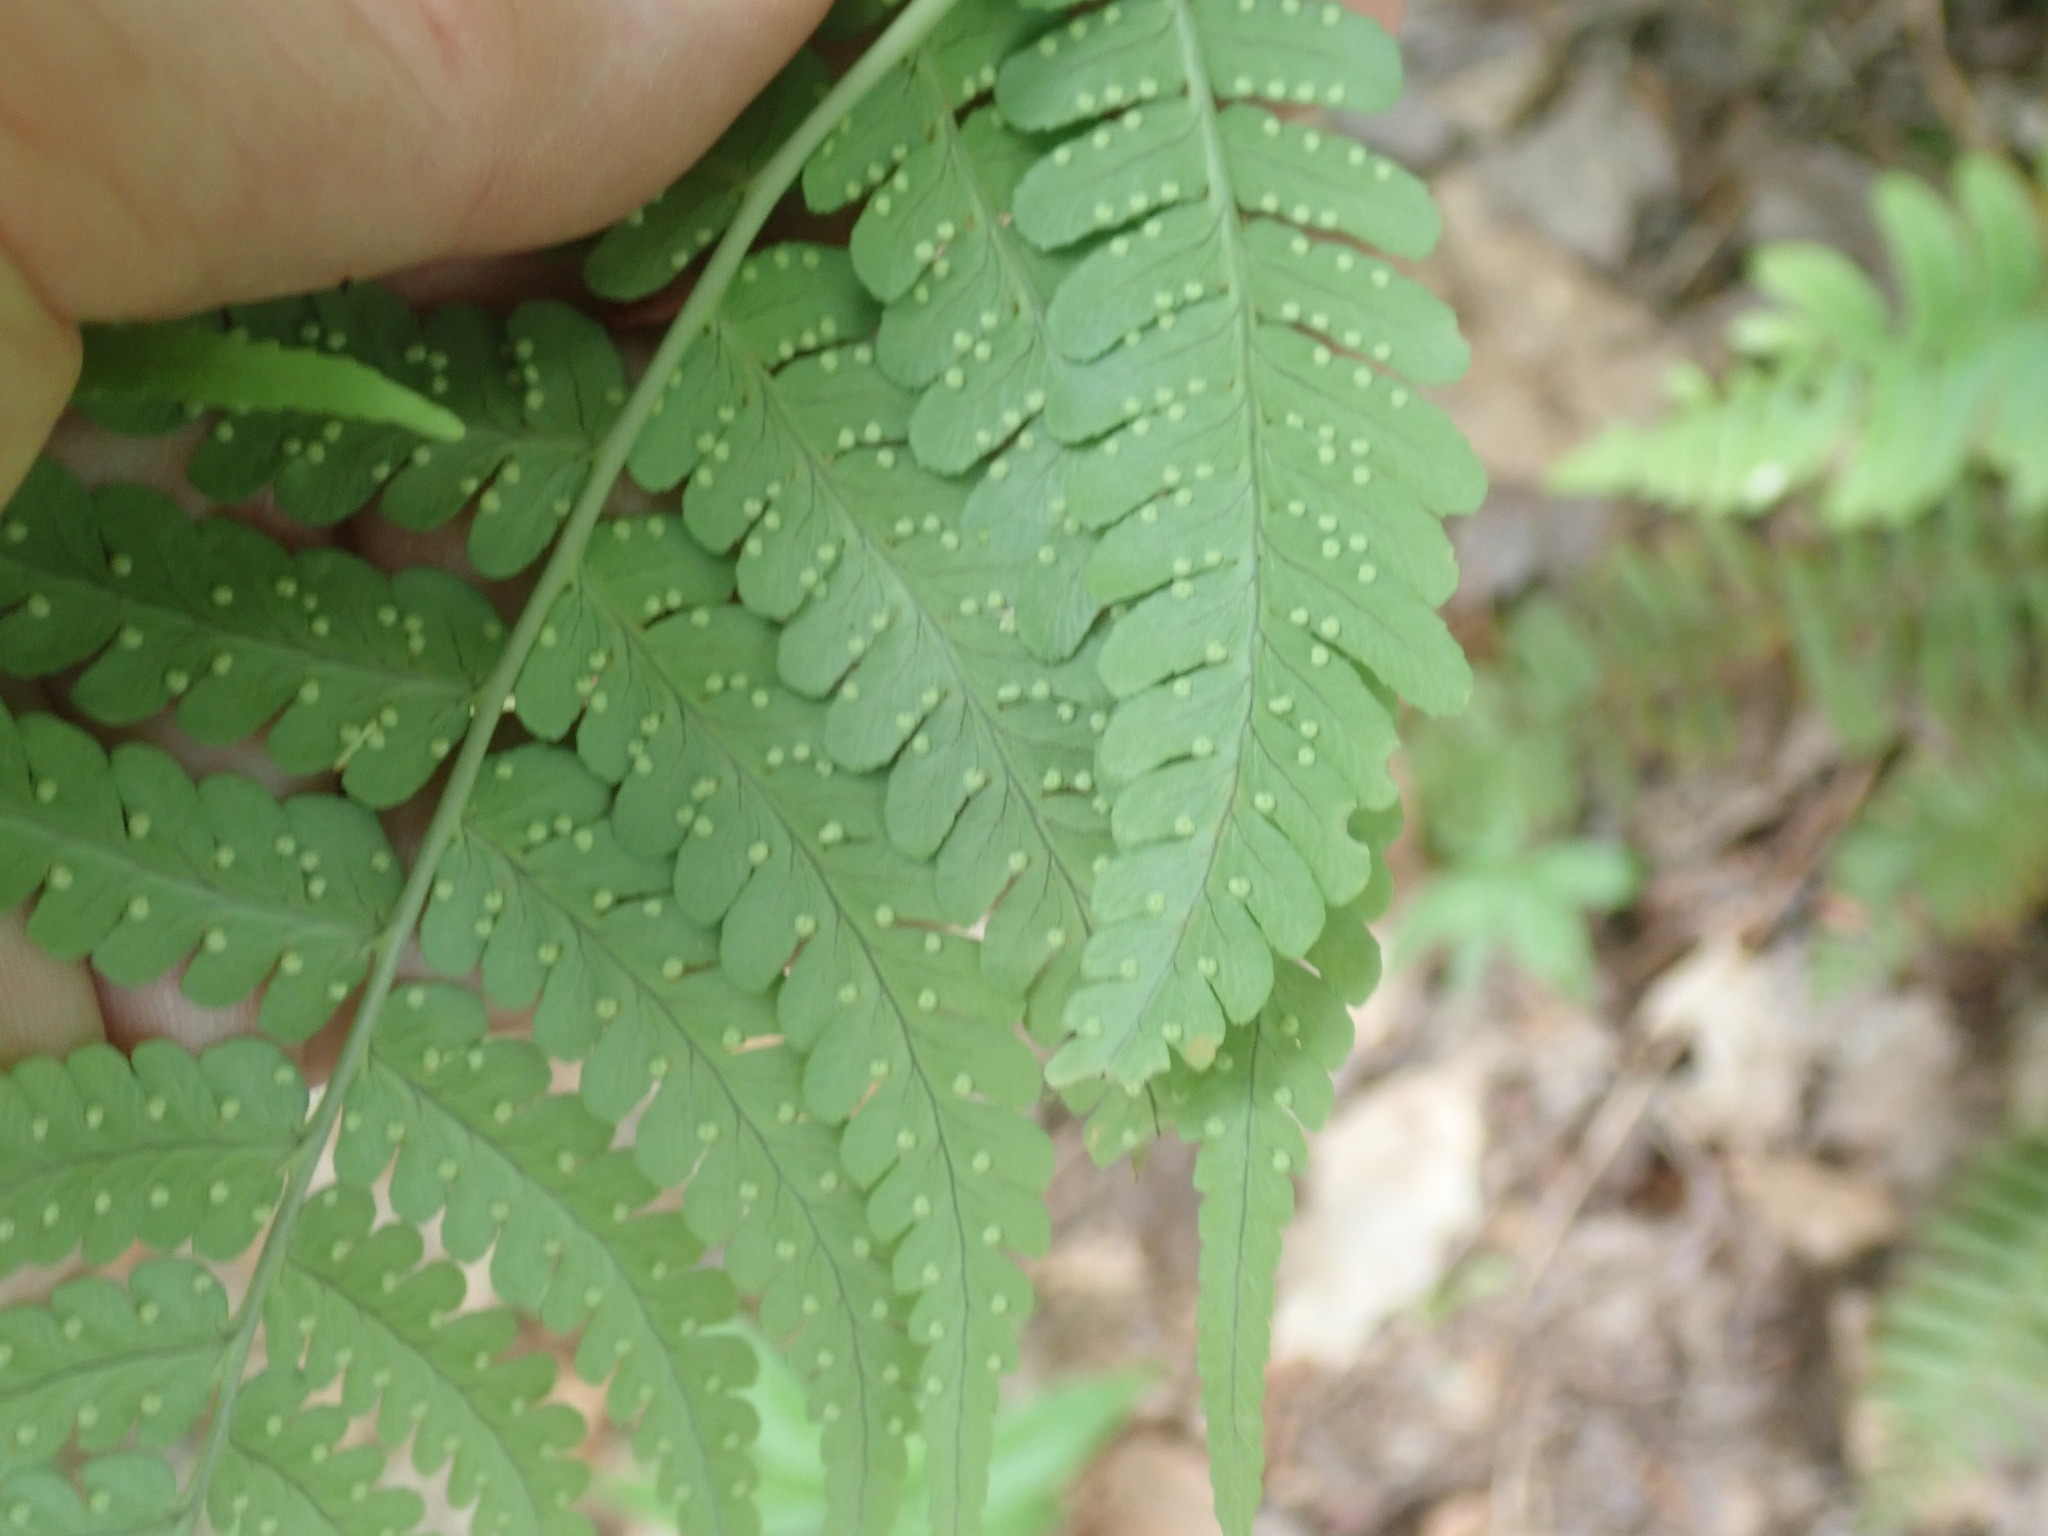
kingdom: Plantae
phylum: Tracheophyta
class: Polypodiopsida
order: Polypodiales
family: Dryopteridaceae
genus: Dryopteris
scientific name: Dryopteris marginalis
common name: Marginal wood fern
